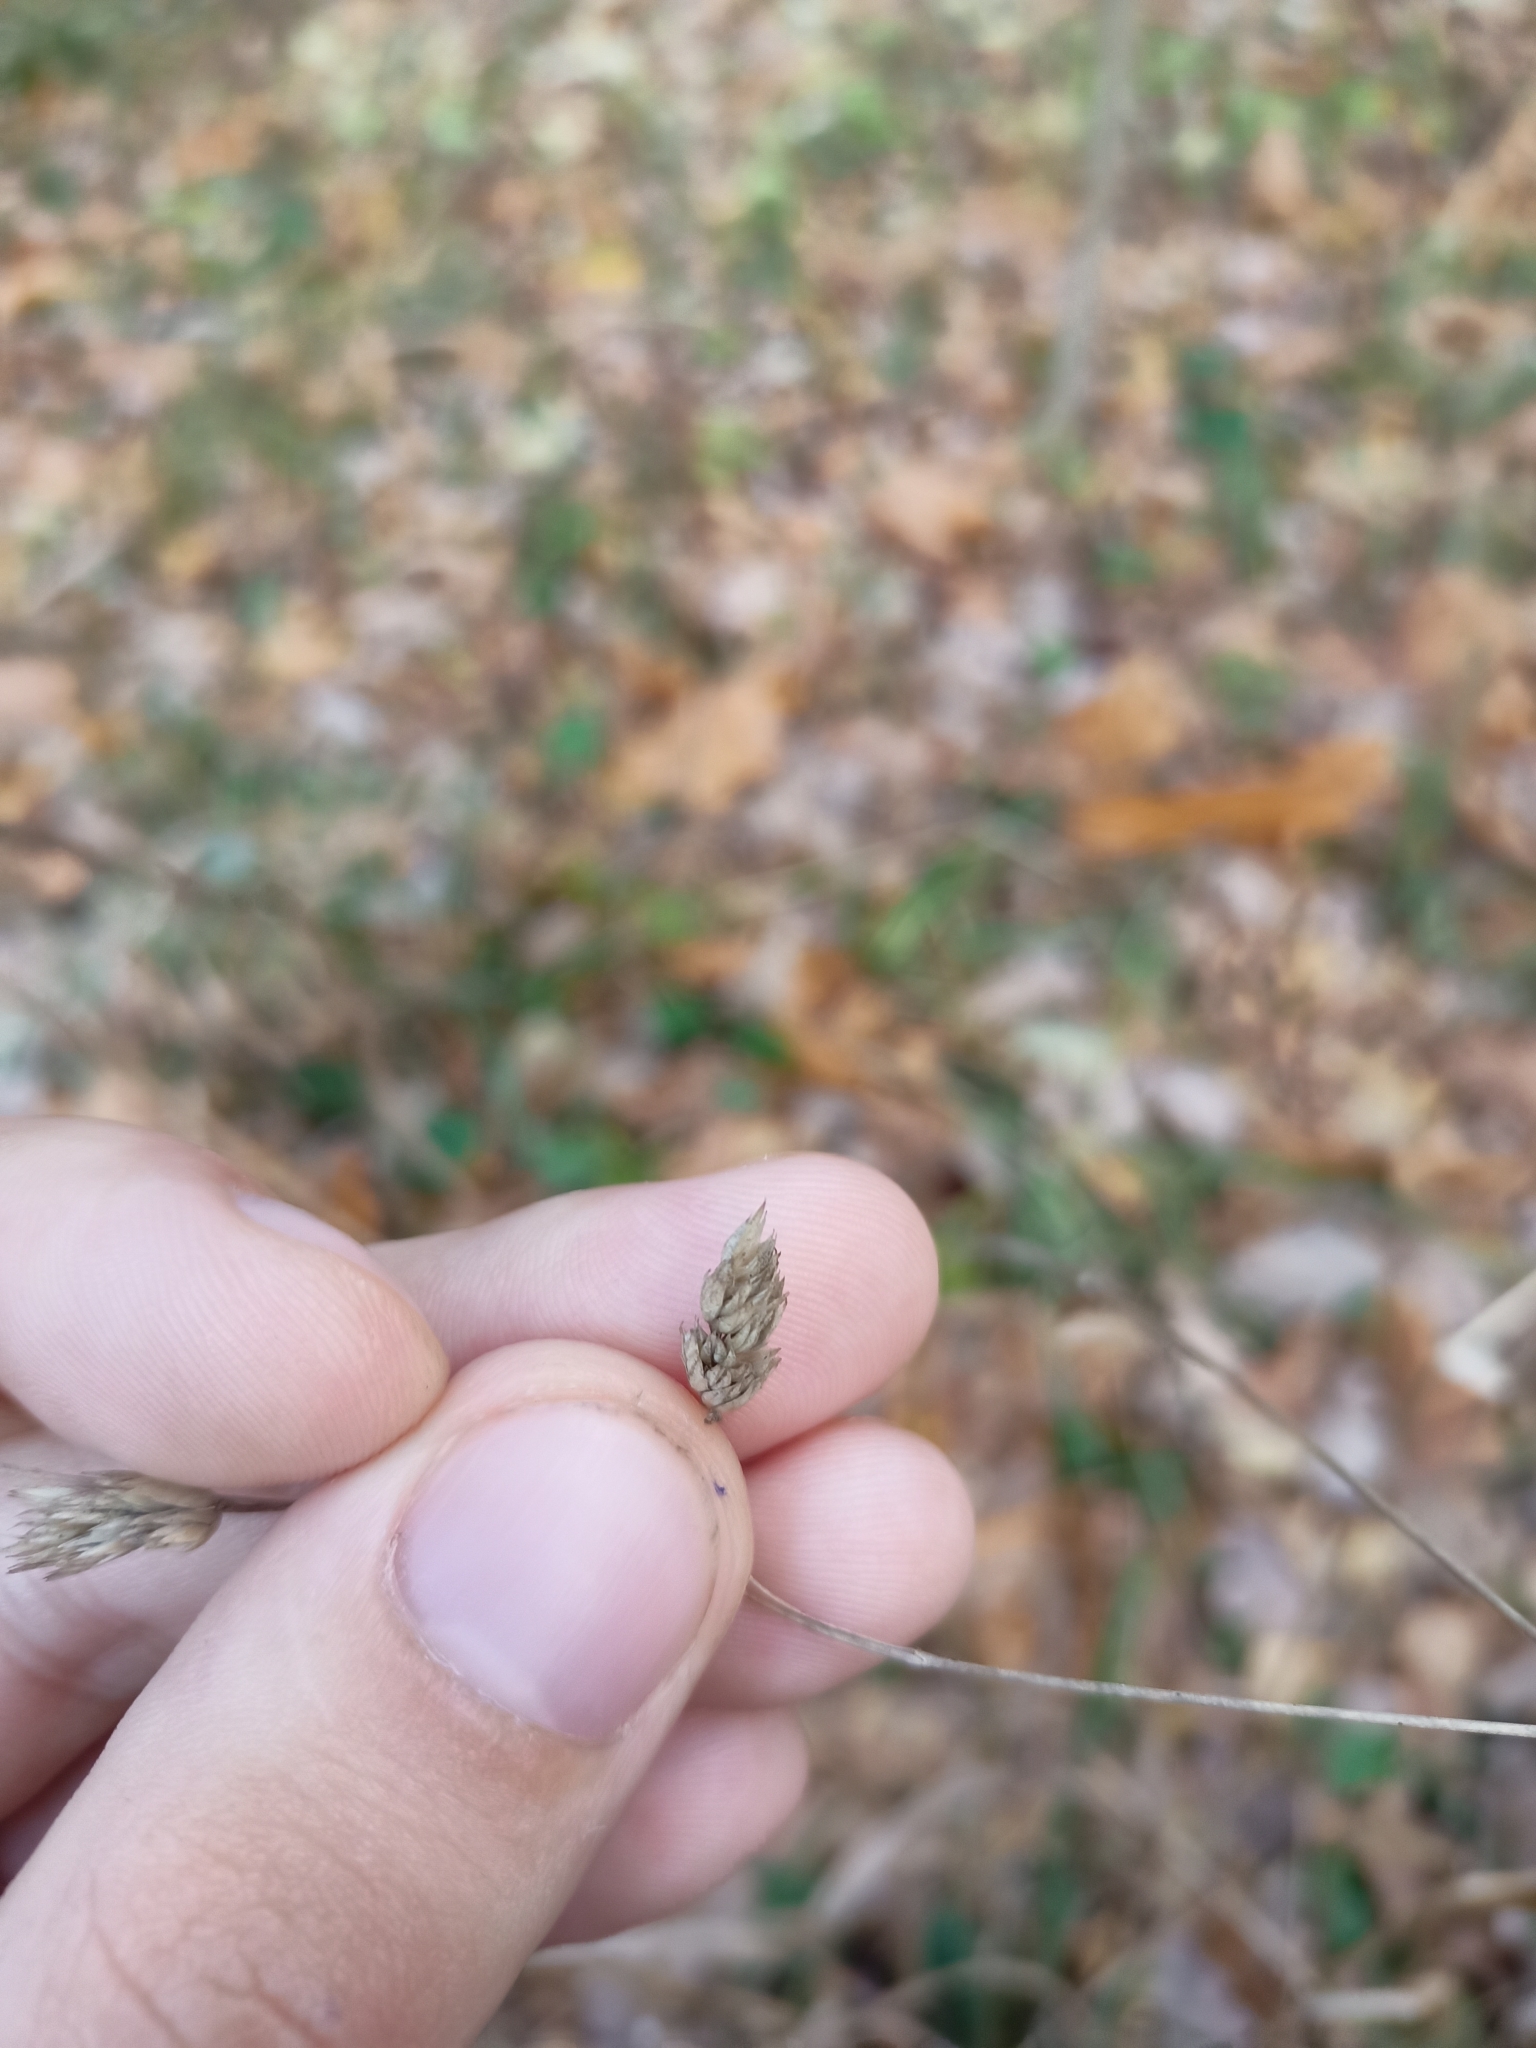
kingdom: Plantae
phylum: Tracheophyta
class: Liliopsida
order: Poales
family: Poaceae
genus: Dactylis
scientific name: Dactylis glomerata
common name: Orchardgrass
